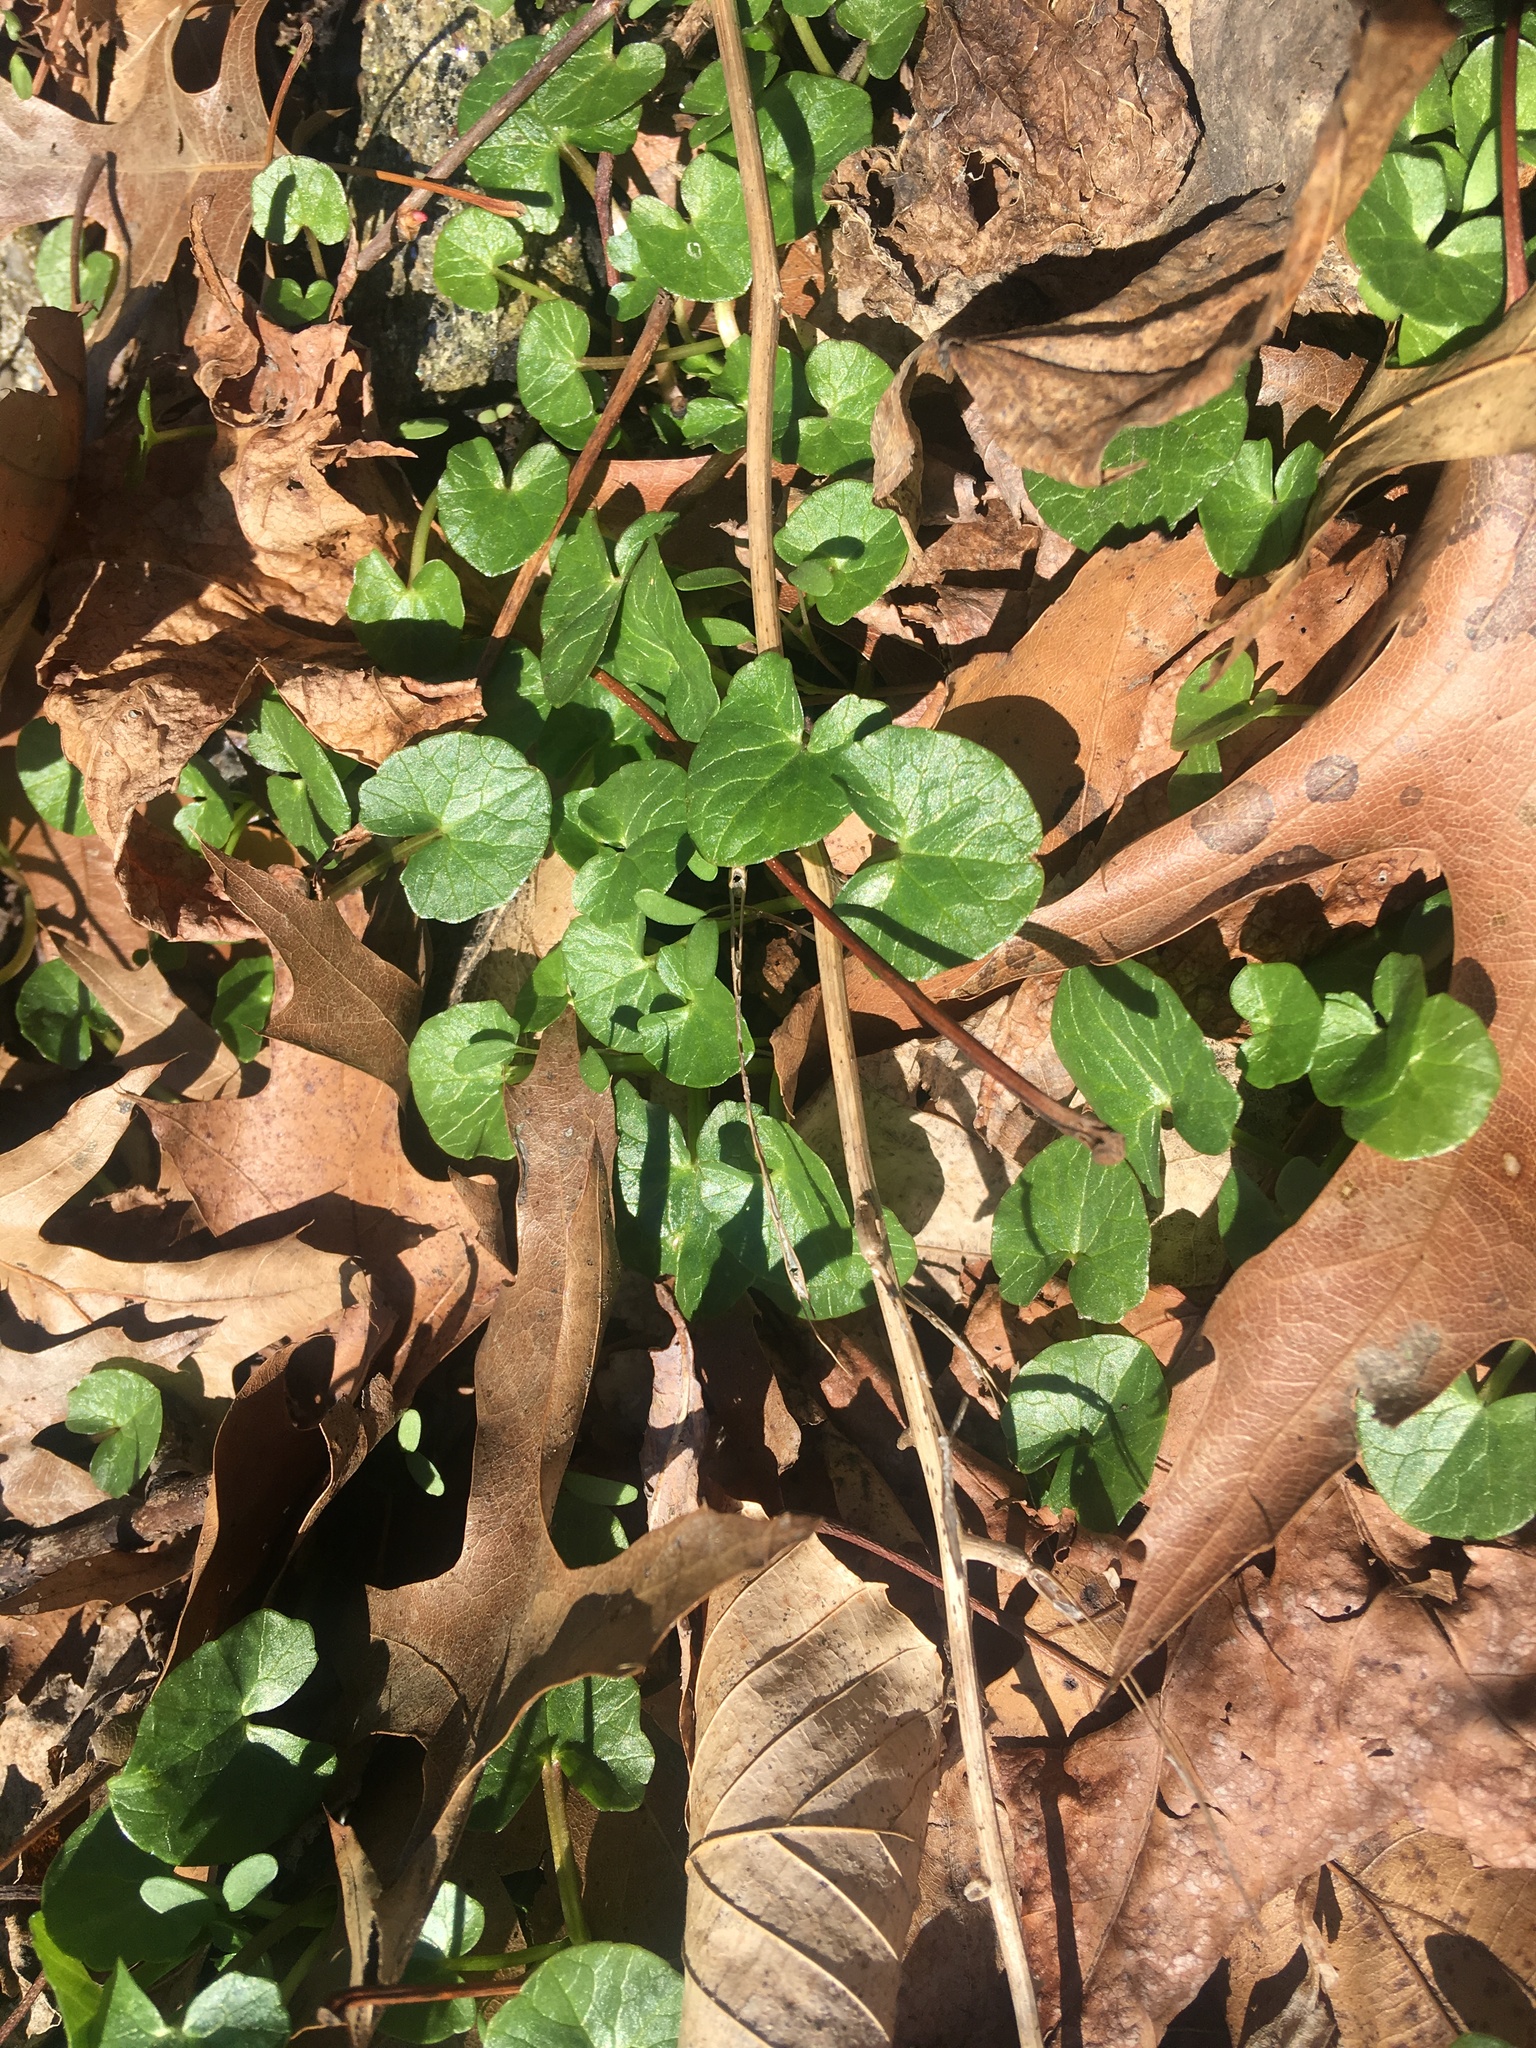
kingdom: Plantae
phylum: Tracheophyta
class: Magnoliopsida
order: Ranunculales
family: Ranunculaceae
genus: Ficaria
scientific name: Ficaria verna
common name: Lesser celandine
